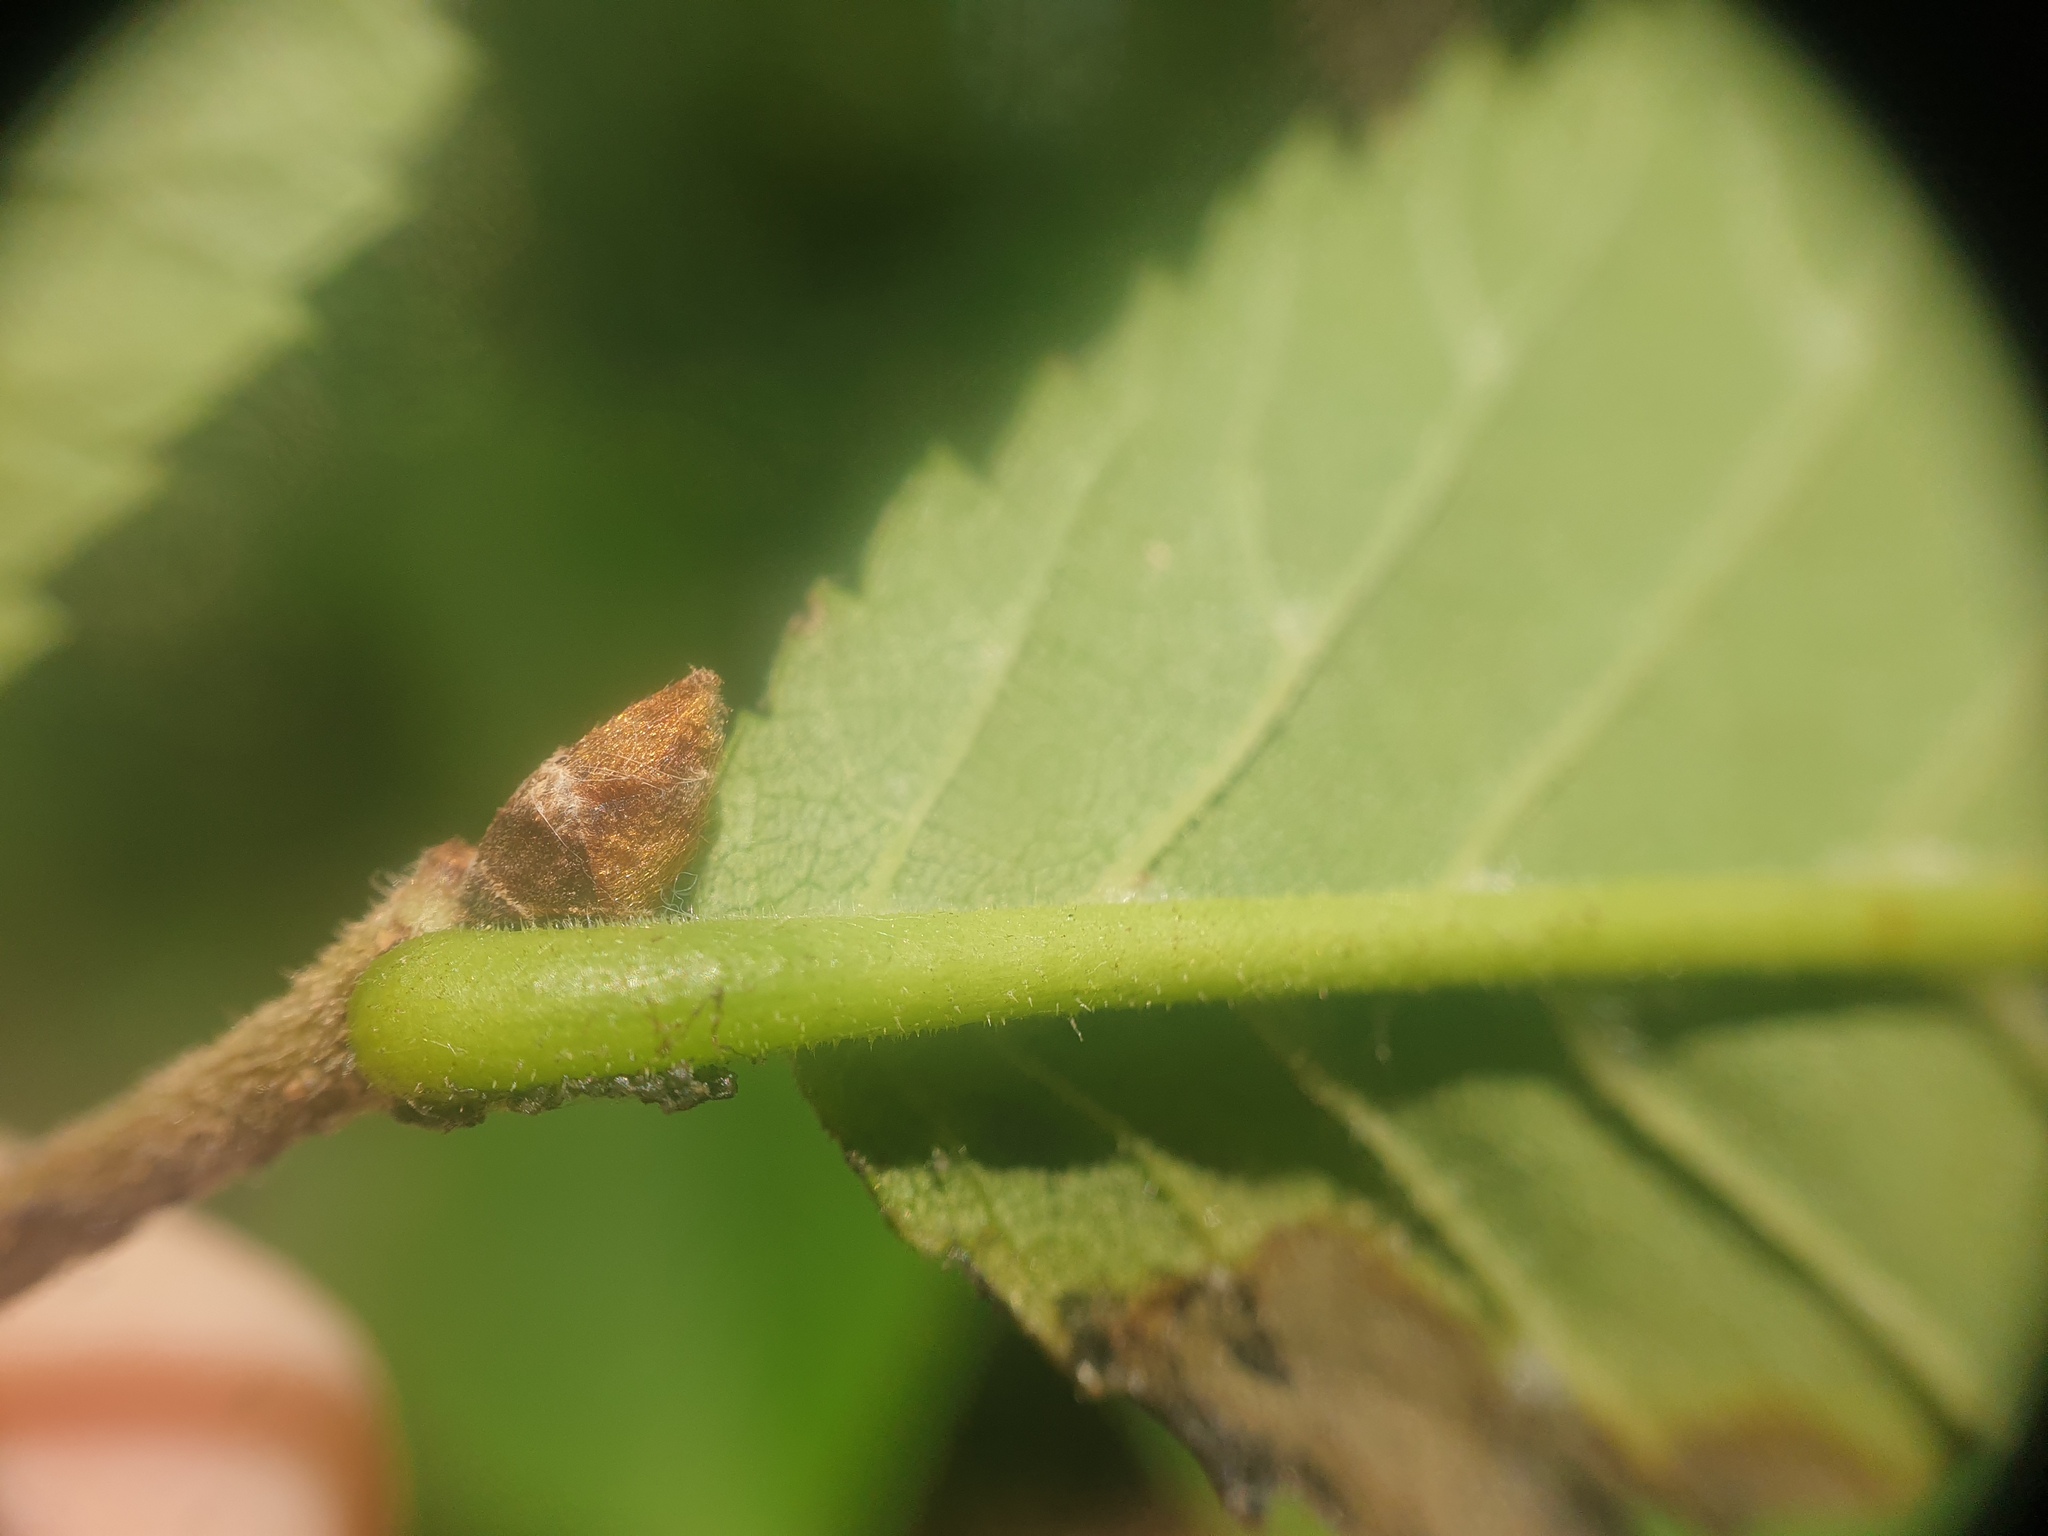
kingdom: Plantae
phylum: Tracheophyta
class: Magnoliopsida
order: Rosales
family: Ulmaceae
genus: Ulmus
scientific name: Ulmus rubra
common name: Slippery elm
